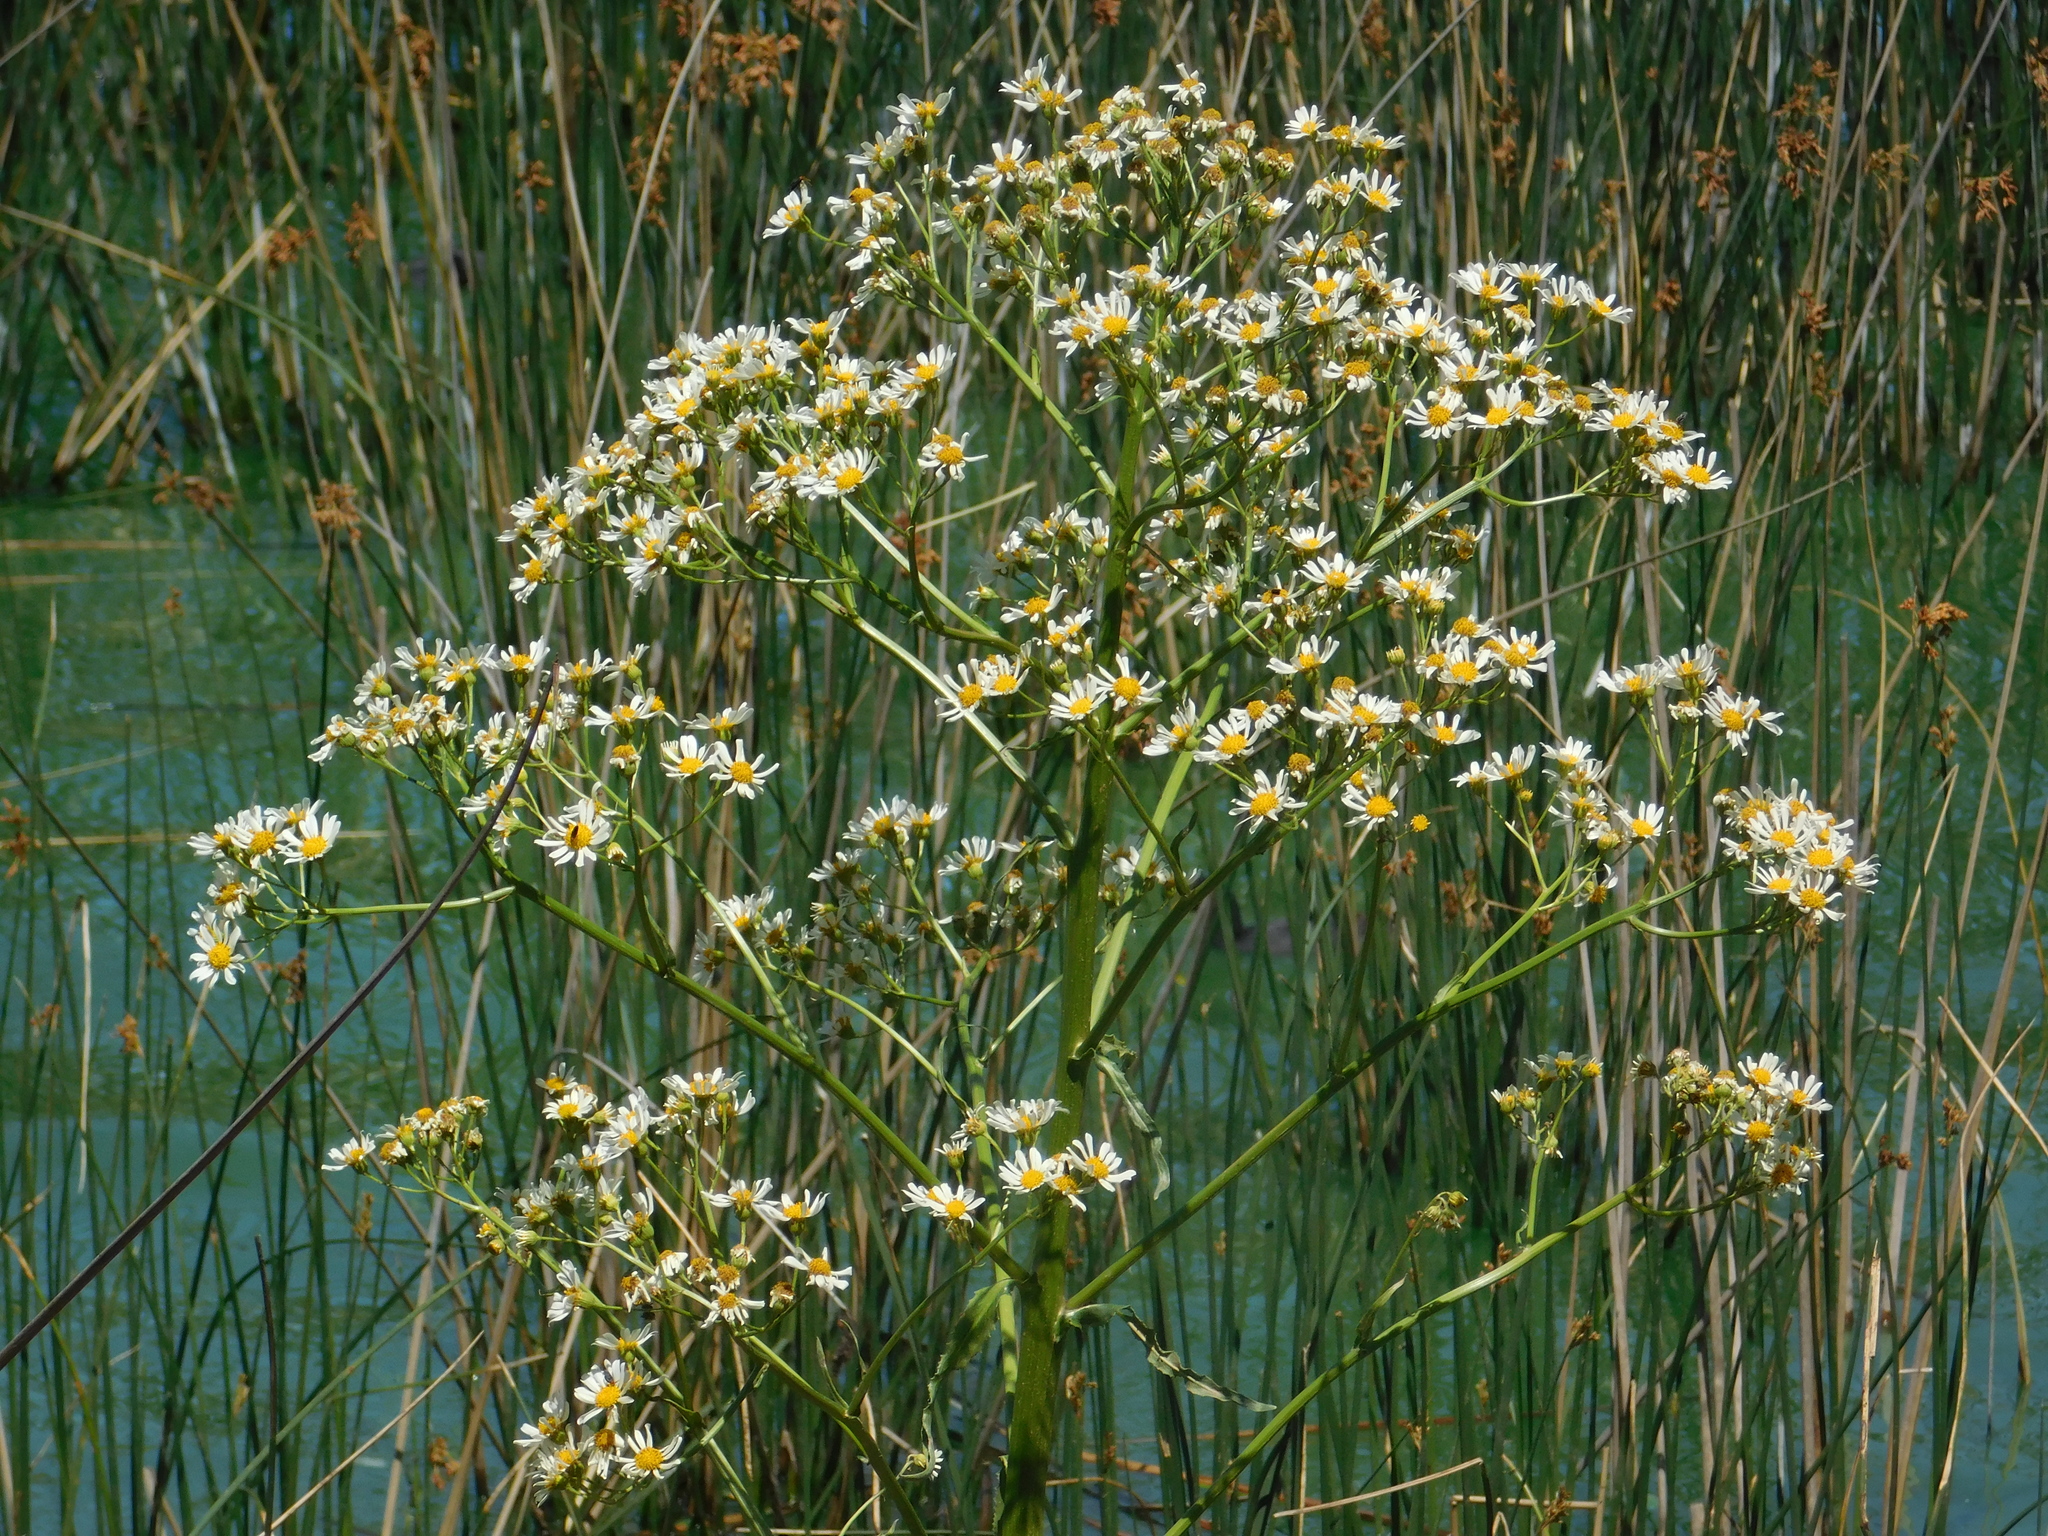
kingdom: Plantae
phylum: Tracheophyta
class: Magnoliopsida
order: Asterales
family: Asteraceae
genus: Senecio
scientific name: Senecio bonariensis
